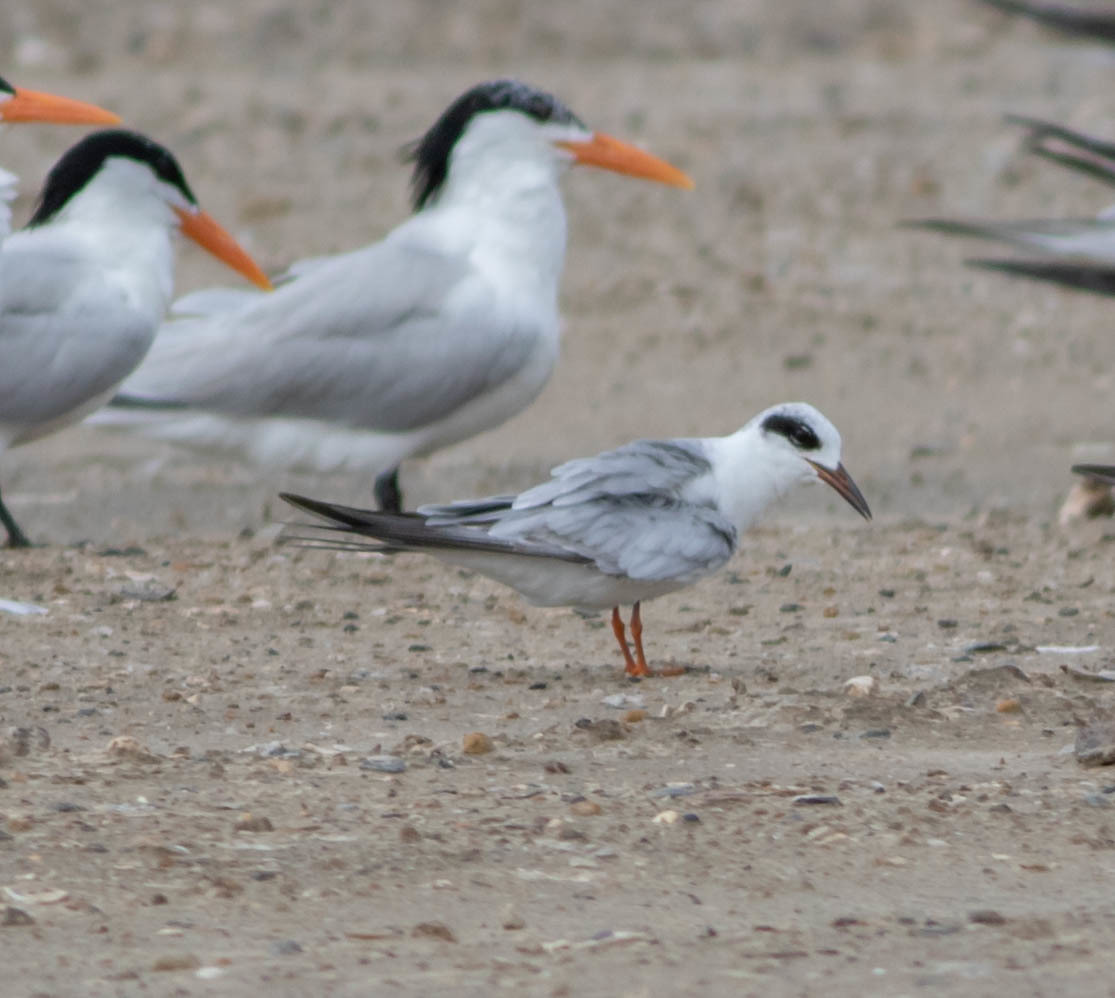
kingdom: Animalia
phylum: Chordata
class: Aves
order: Charadriiformes
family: Laridae
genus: Sterna
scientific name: Sterna forsteri
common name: Forster's tern
